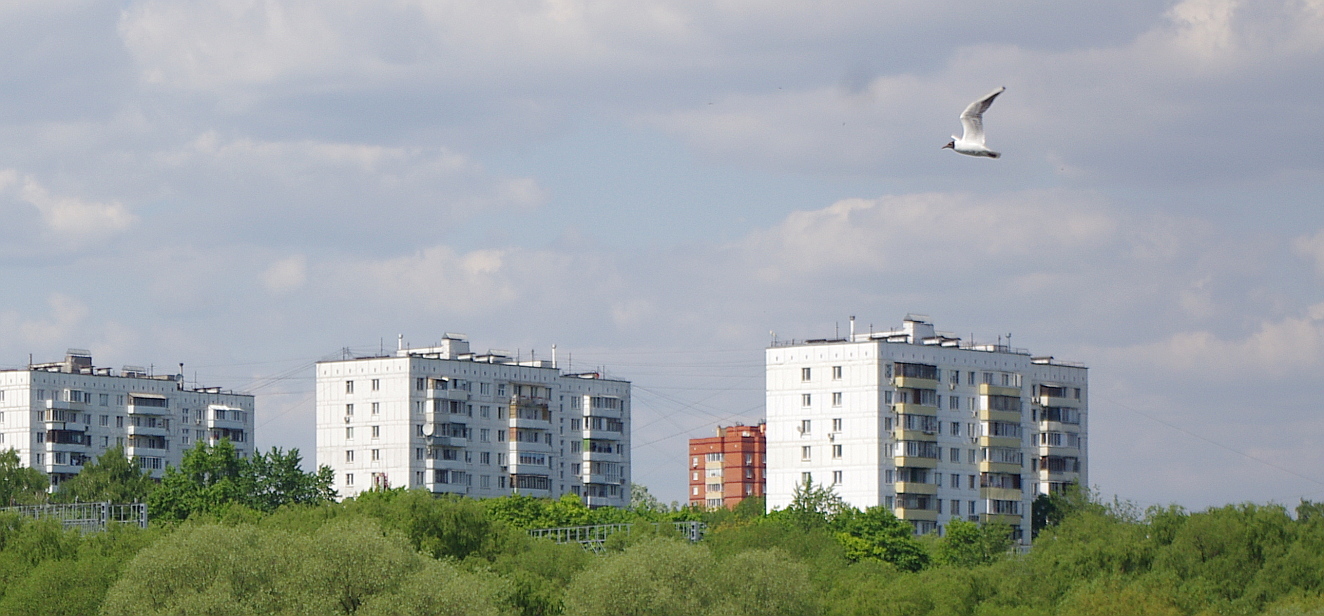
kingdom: Animalia
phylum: Chordata
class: Aves
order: Charadriiformes
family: Laridae
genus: Chroicocephalus
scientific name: Chroicocephalus ridibundus
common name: Black-headed gull
